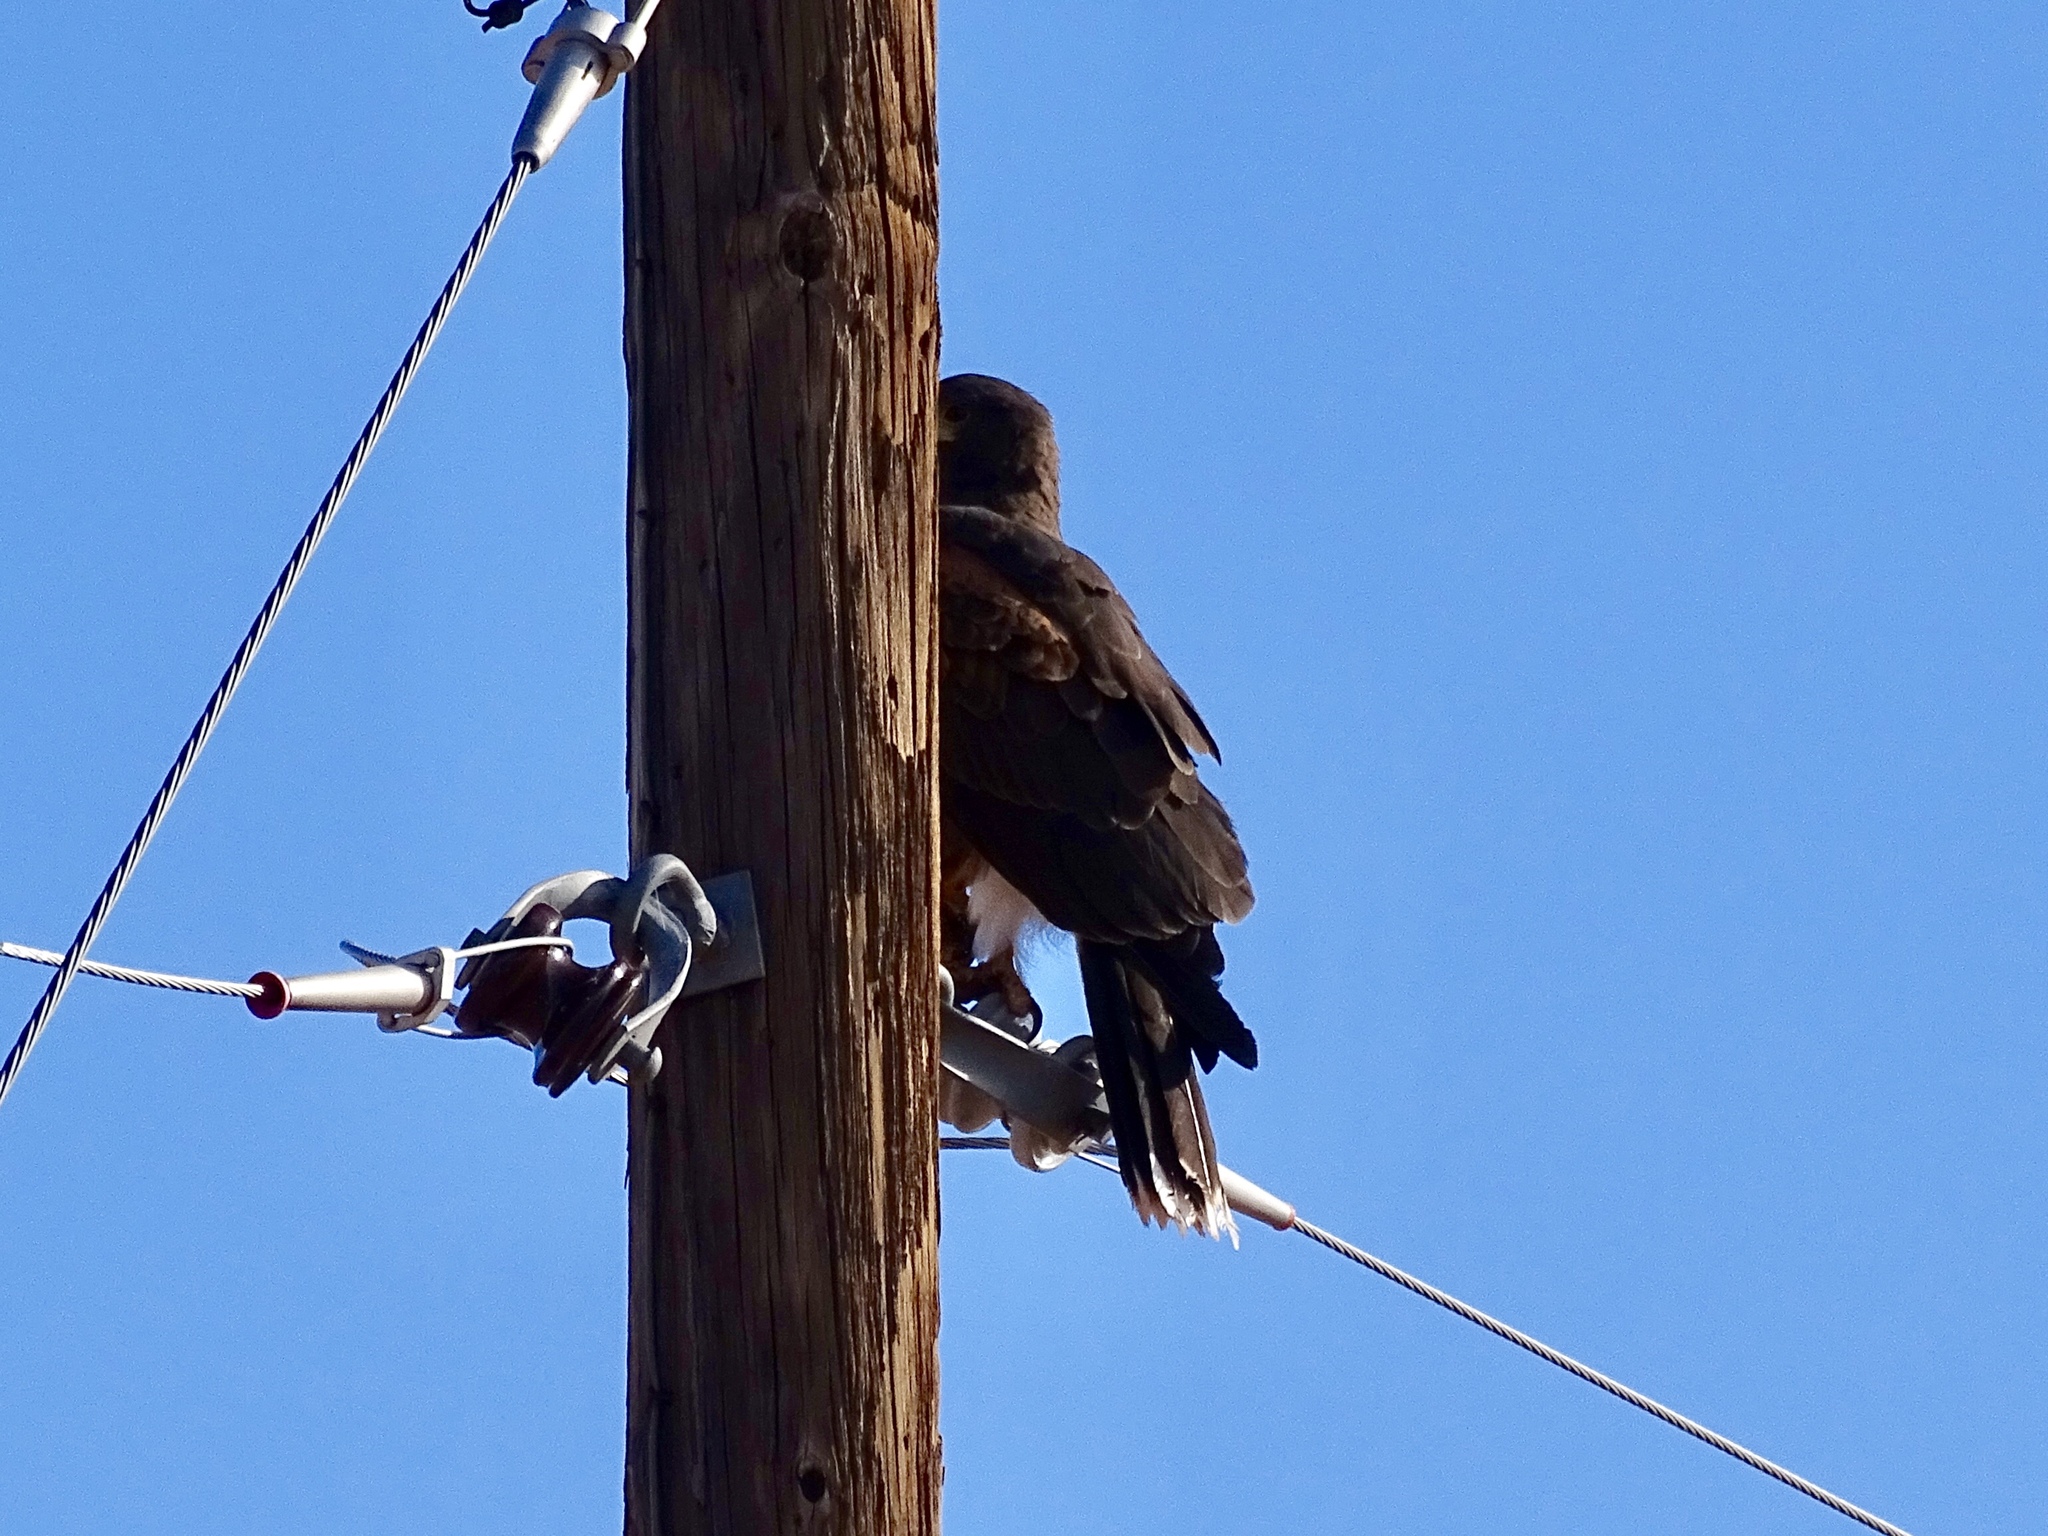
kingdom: Animalia
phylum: Chordata
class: Aves
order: Accipitriformes
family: Accipitridae
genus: Parabuteo
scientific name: Parabuteo unicinctus
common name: Harris's hawk
